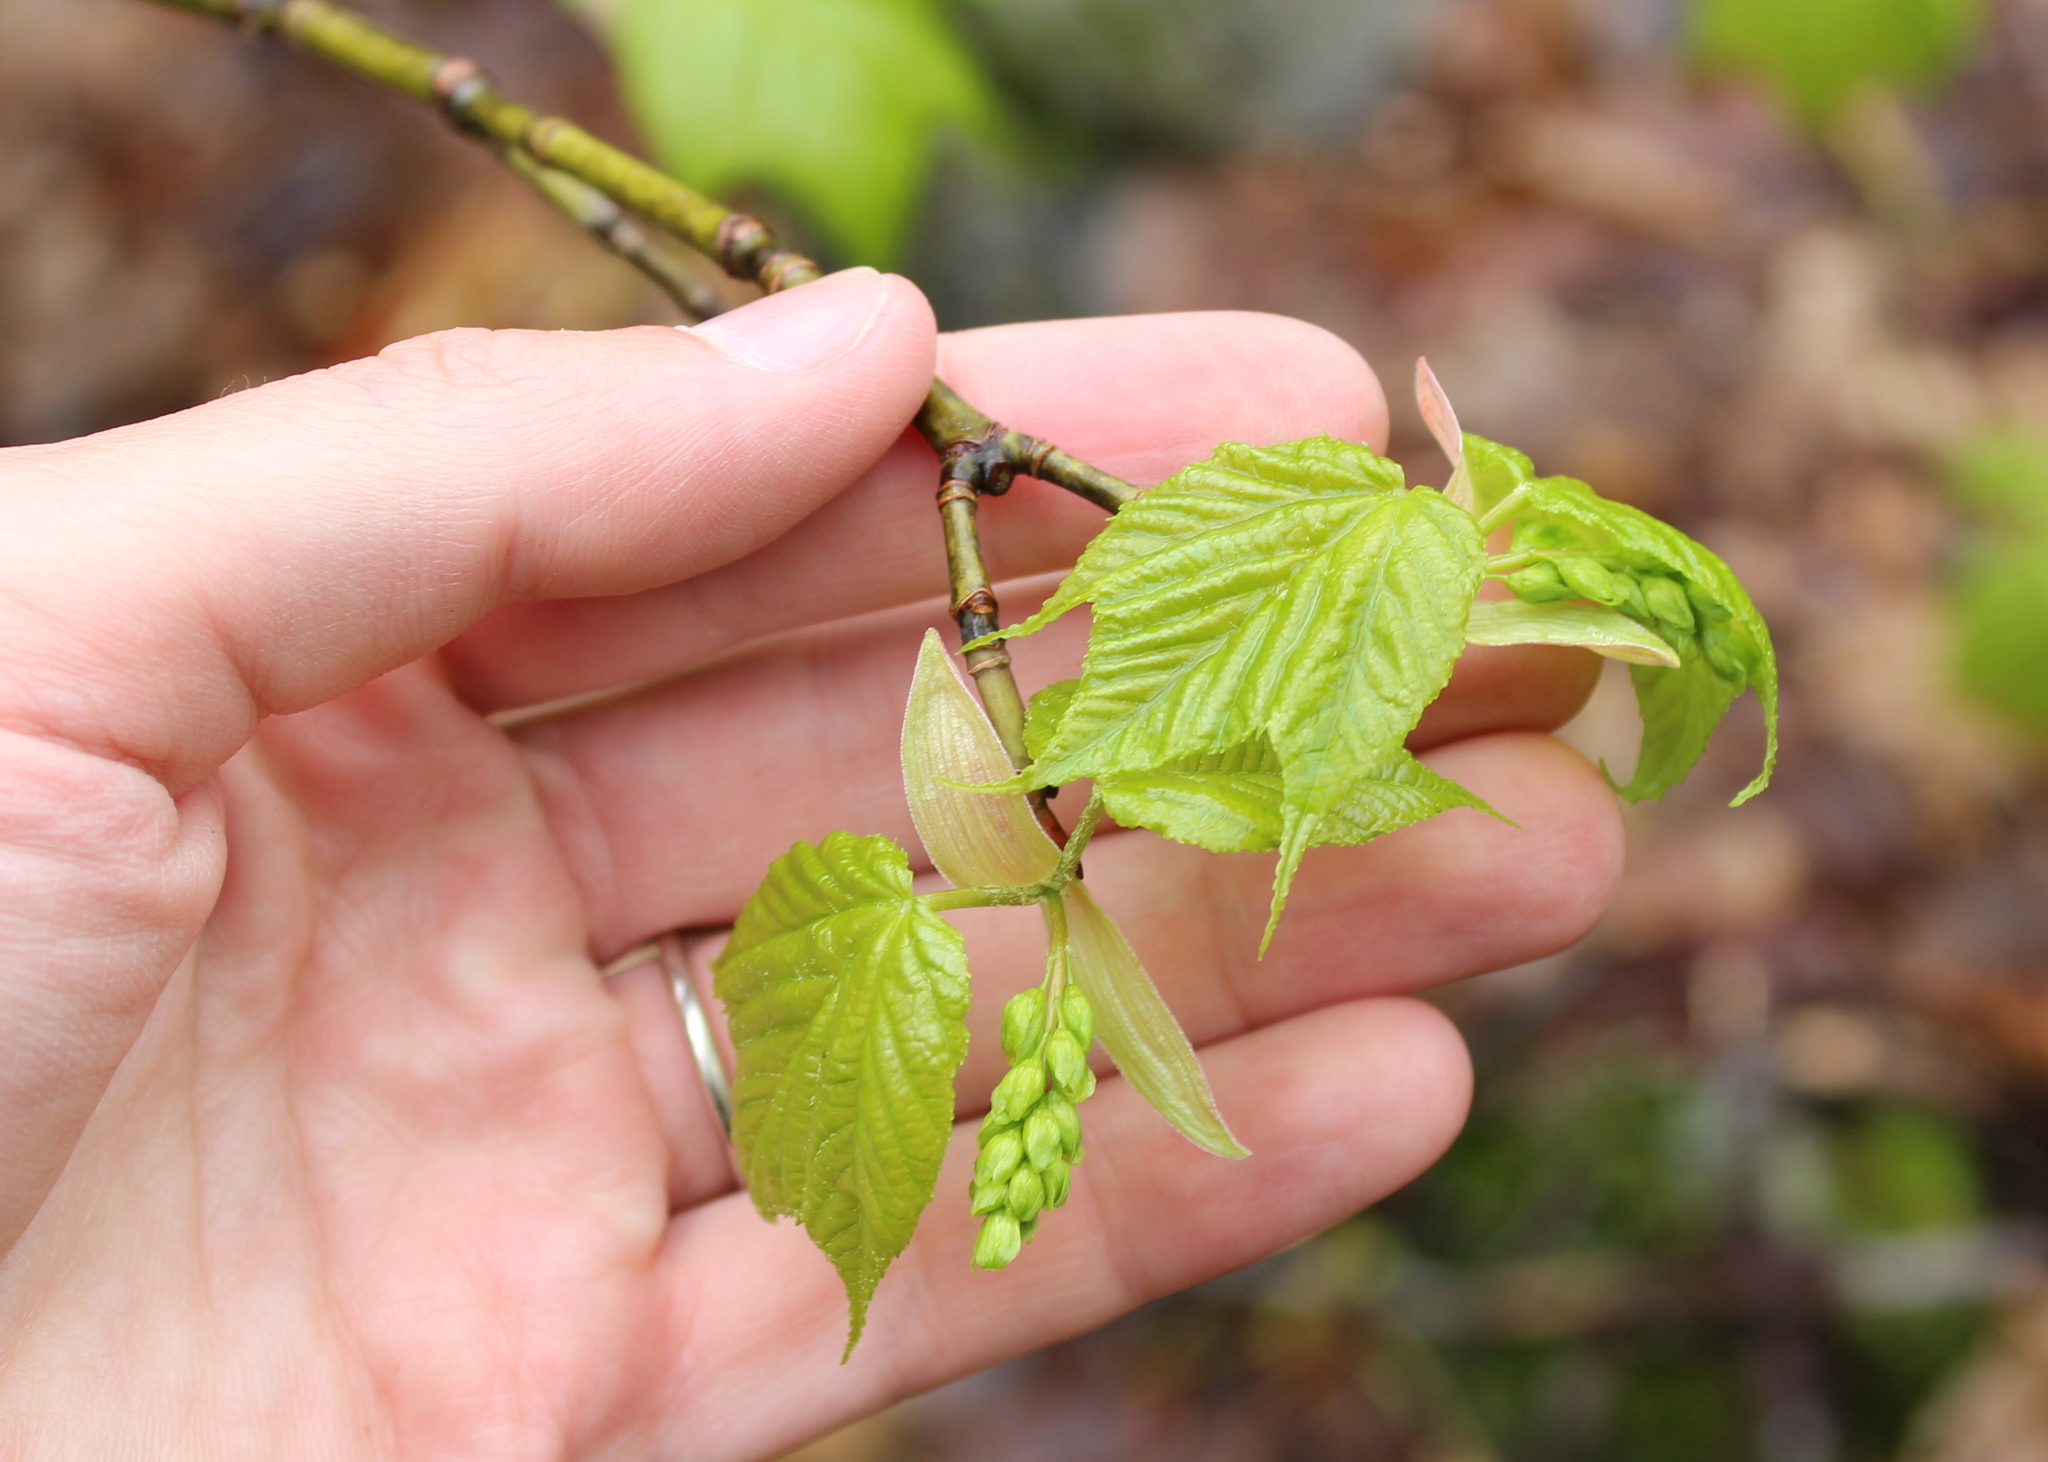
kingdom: Plantae
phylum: Tracheophyta
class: Magnoliopsida
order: Sapindales
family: Sapindaceae
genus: Acer
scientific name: Acer pensylvanicum
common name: Moosewood
